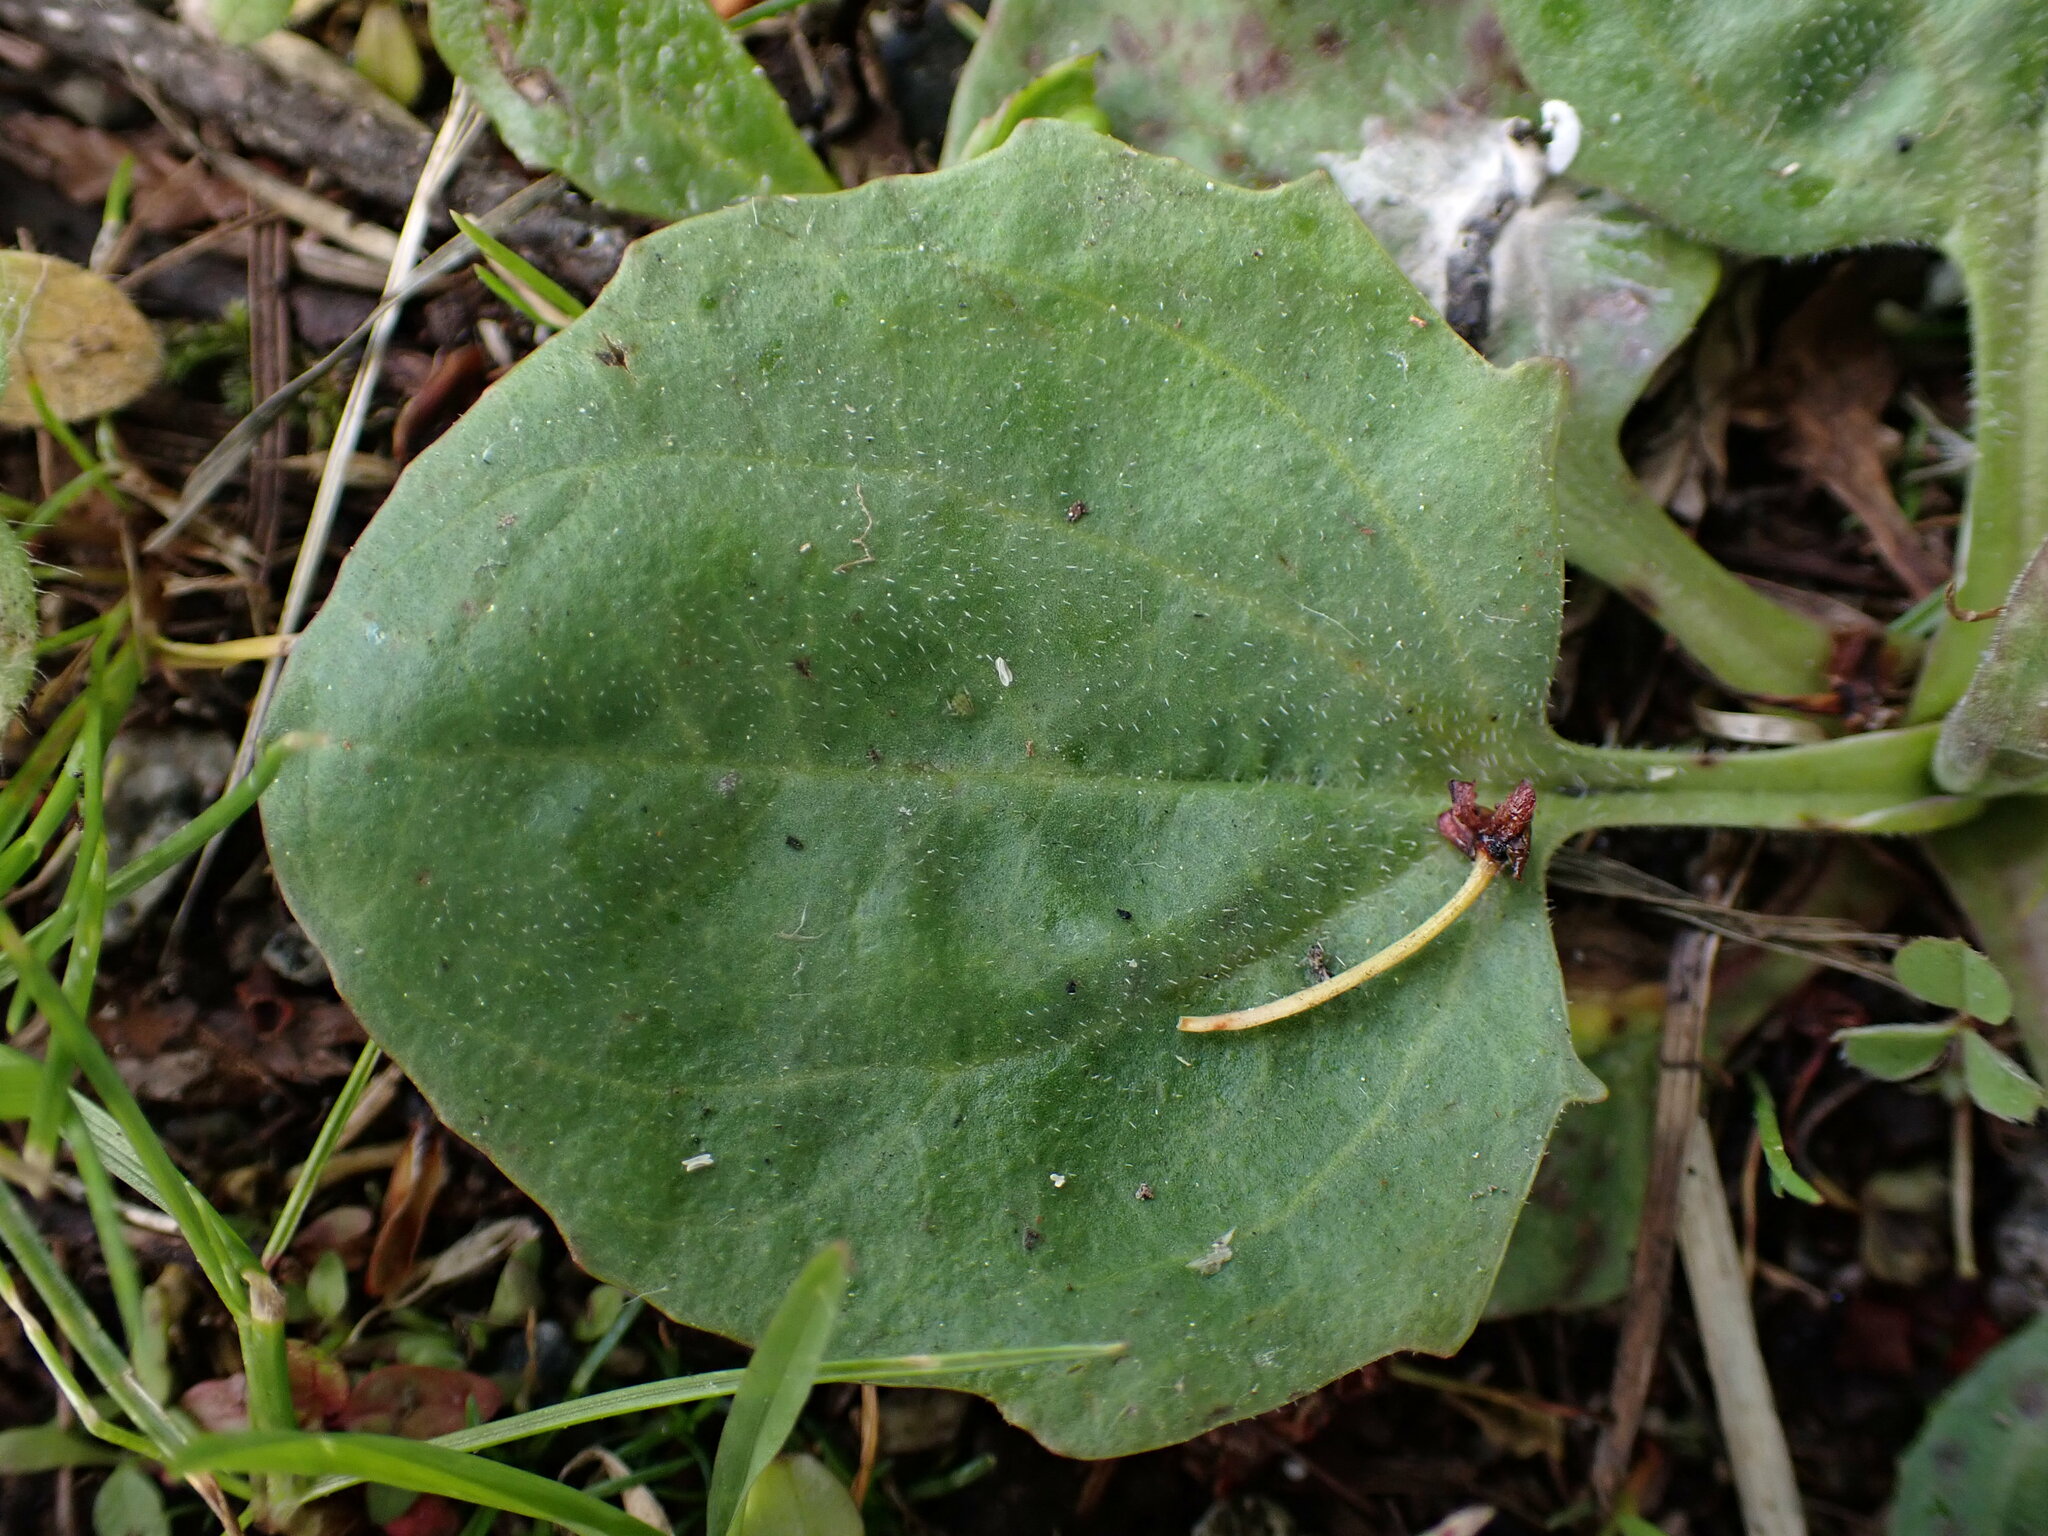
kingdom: Plantae
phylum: Tracheophyta
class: Magnoliopsida
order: Lamiales
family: Plantaginaceae
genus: Plantago
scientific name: Plantago major
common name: Common plantain
